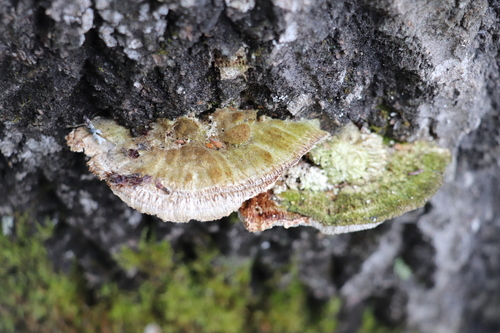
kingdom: Fungi
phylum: Basidiomycota
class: Agaricomycetes
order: Polyporales
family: Polyporaceae
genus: Trametes
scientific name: Trametes trogii
